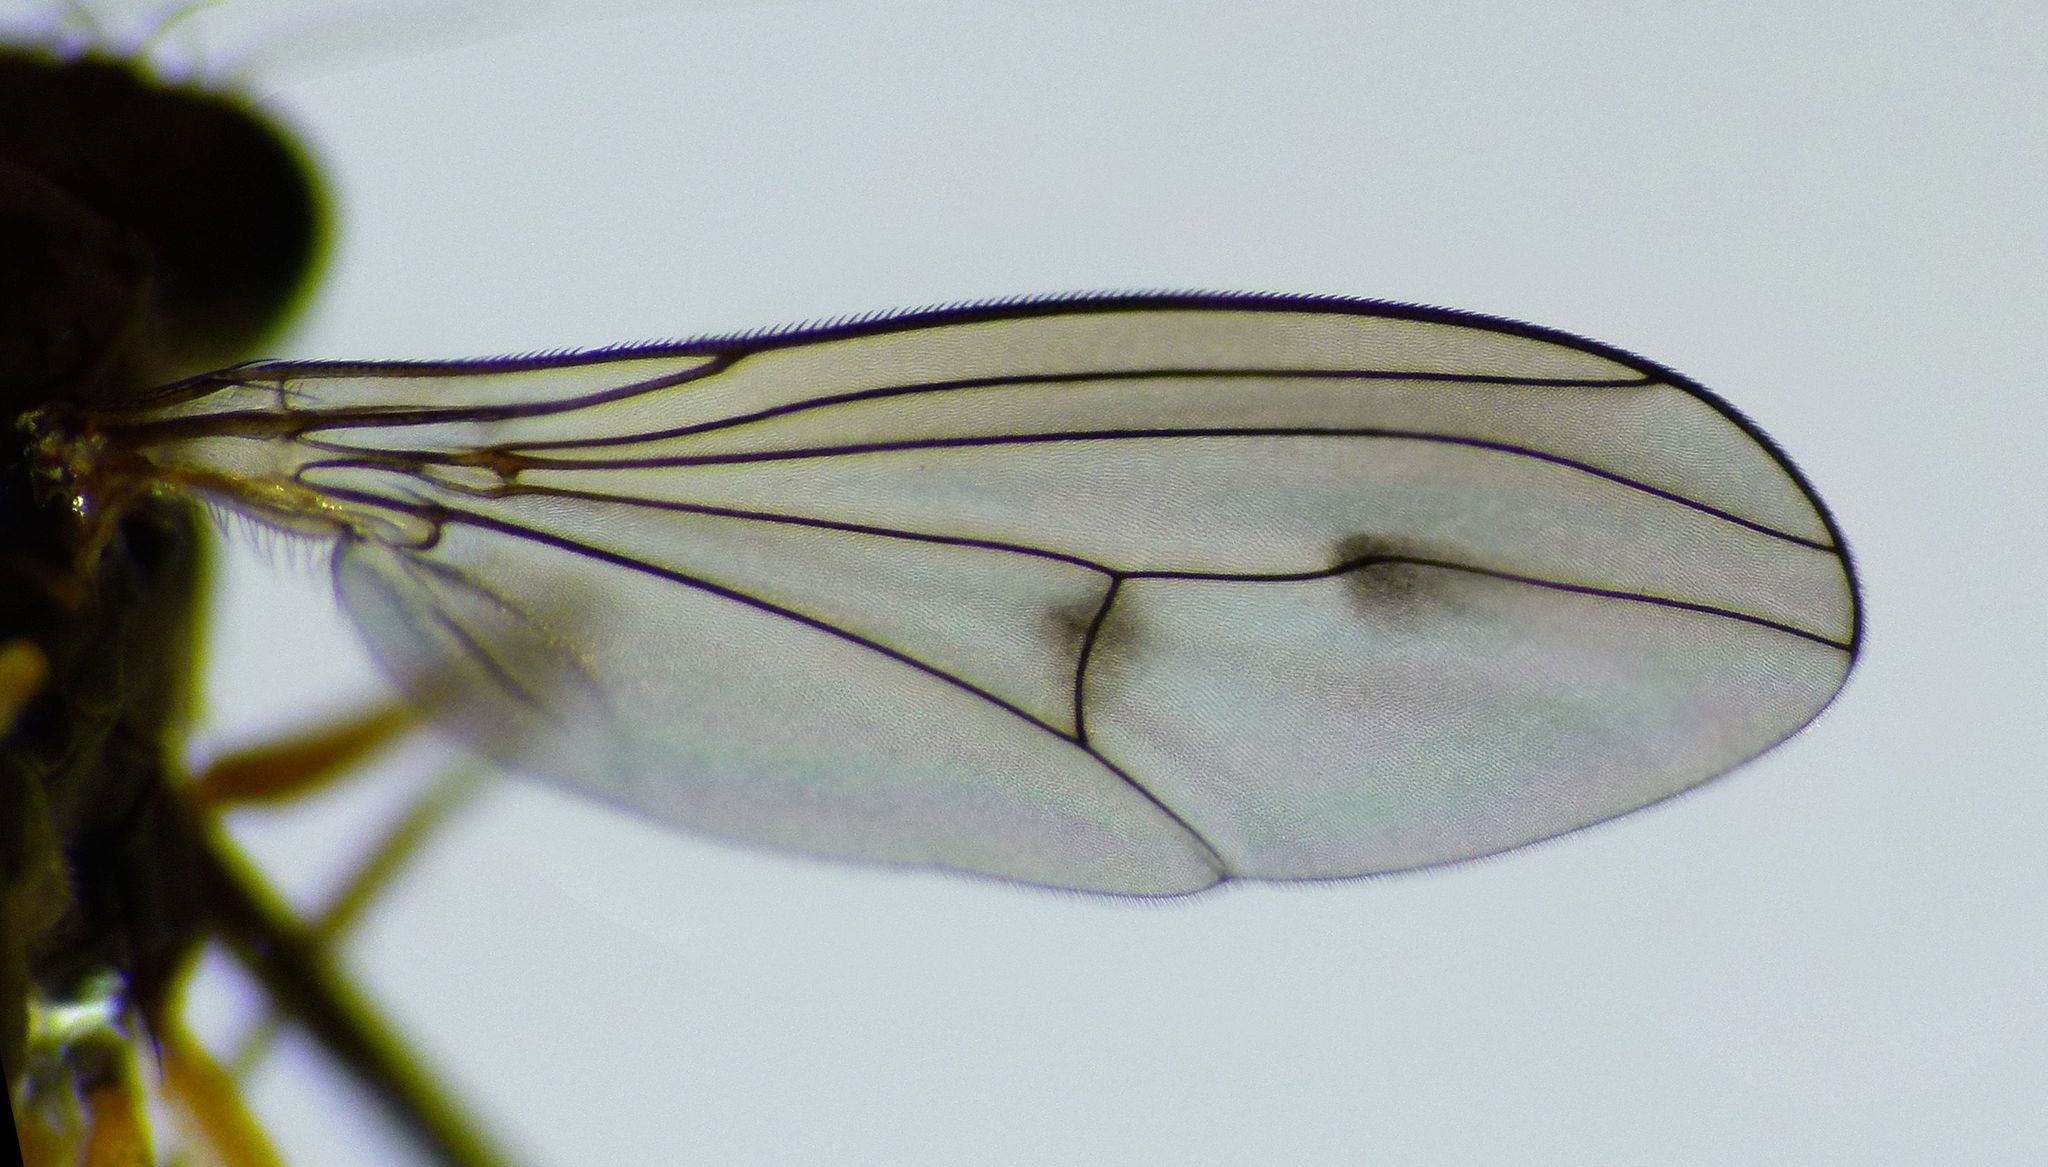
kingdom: Animalia
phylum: Arthropoda
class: Insecta
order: Diptera
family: Dolichopodidae
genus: Helichochaetus
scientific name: Helichochaetus discifer
